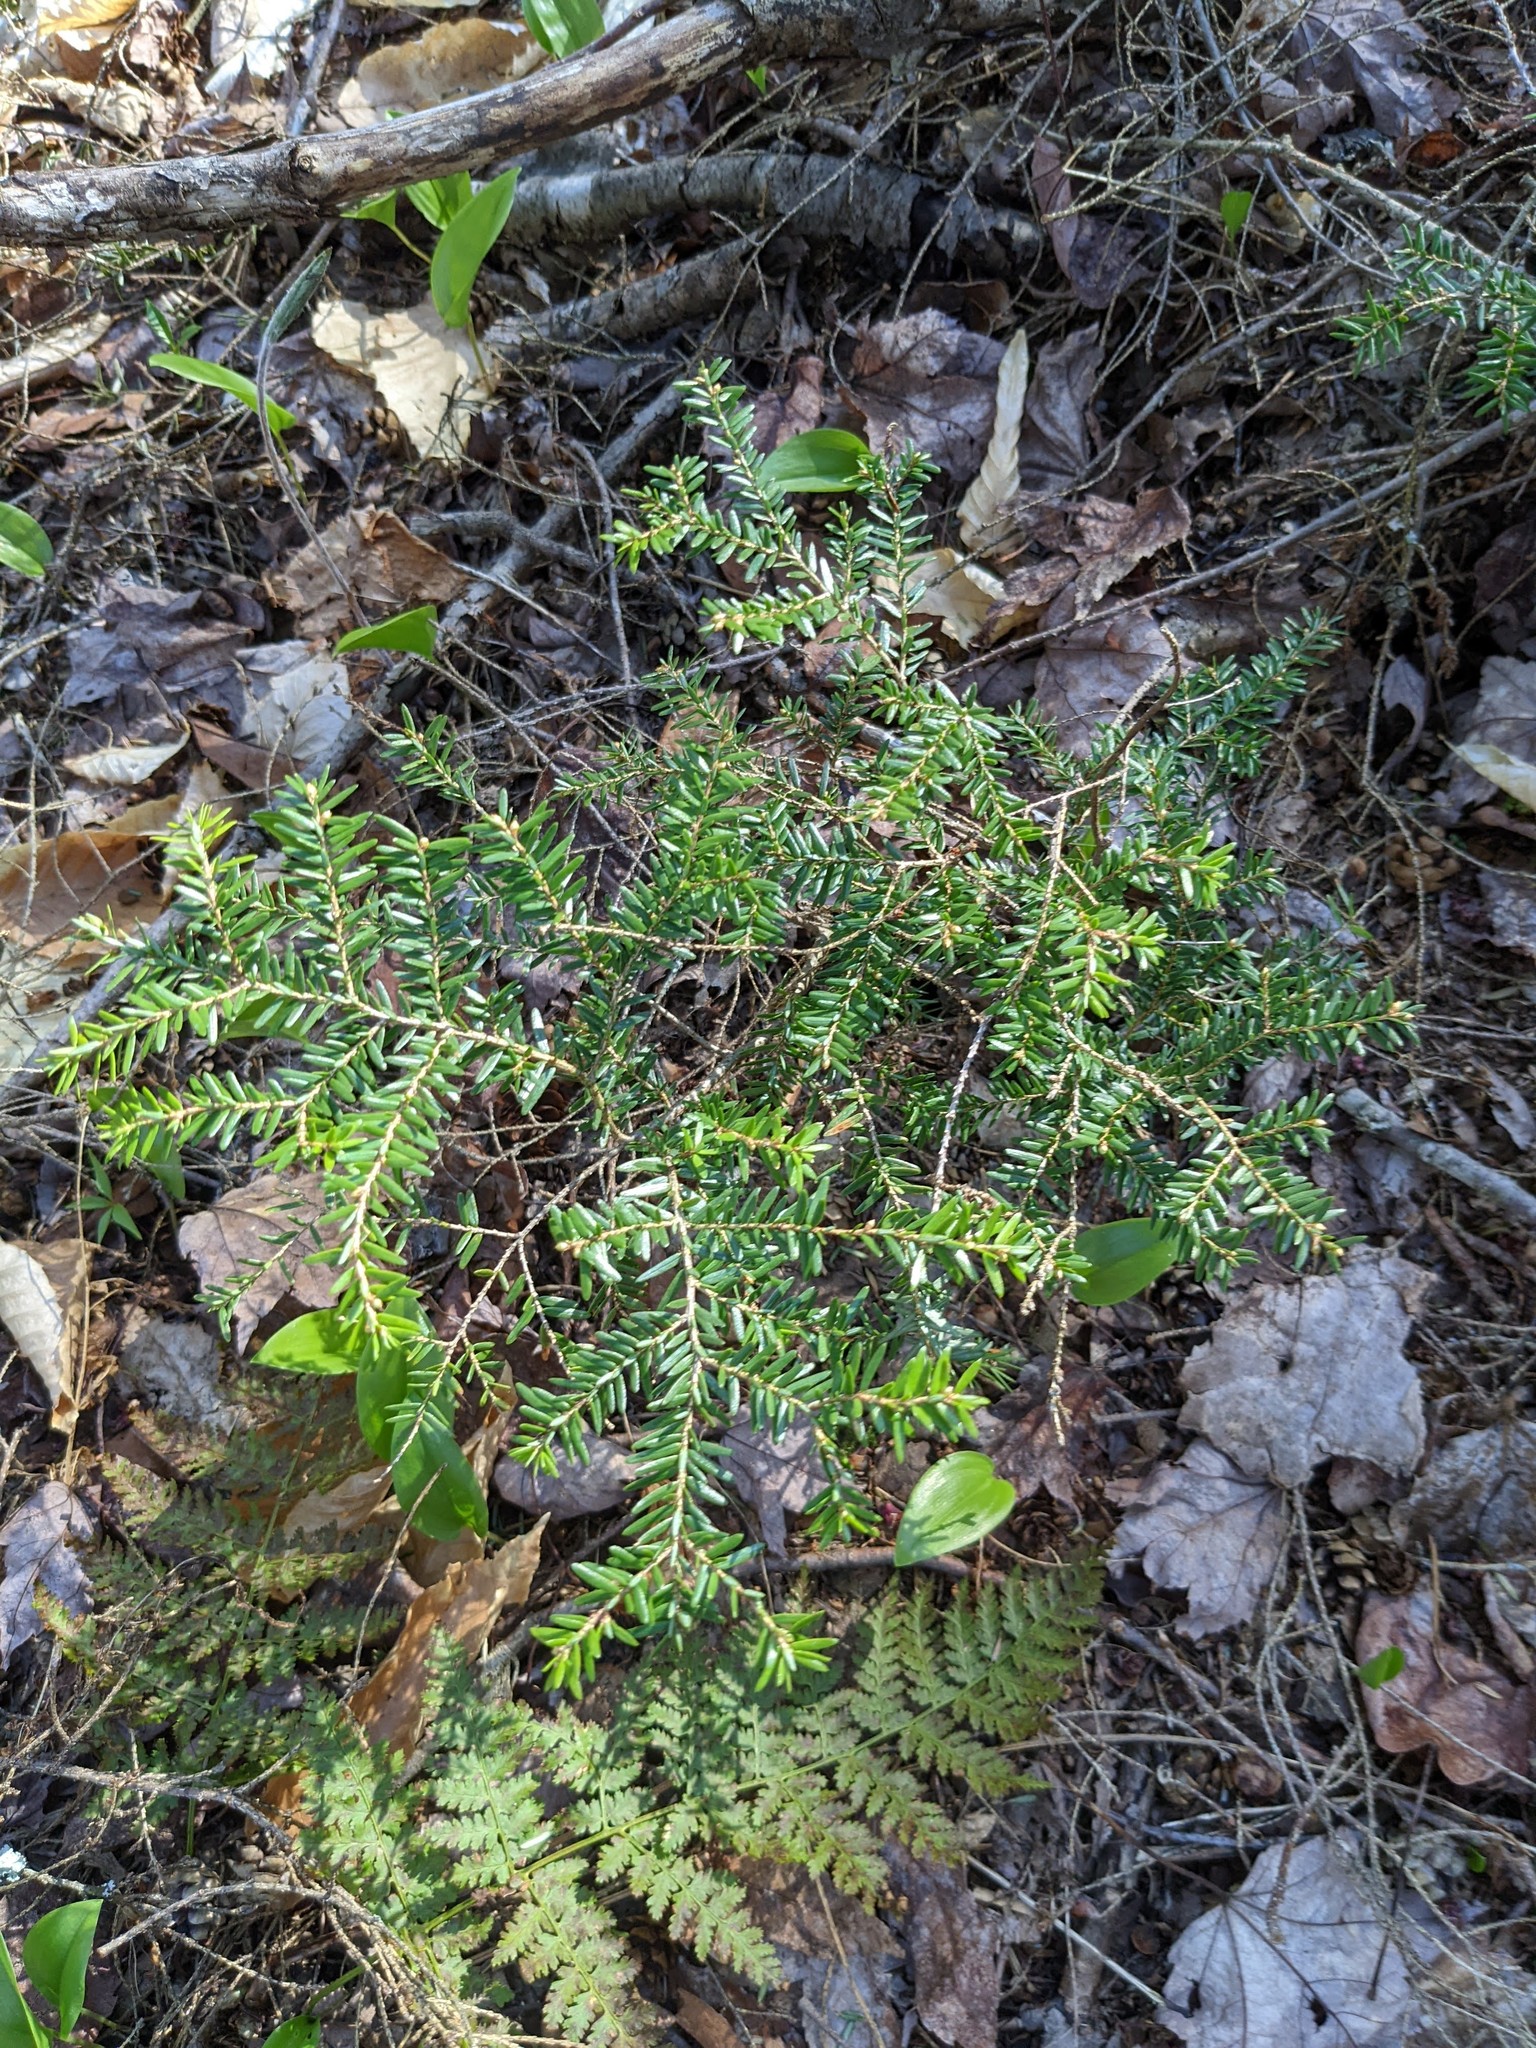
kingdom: Plantae
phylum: Tracheophyta
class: Pinopsida
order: Pinales
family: Pinaceae
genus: Tsuga
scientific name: Tsuga canadensis
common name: Eastern hemlock
